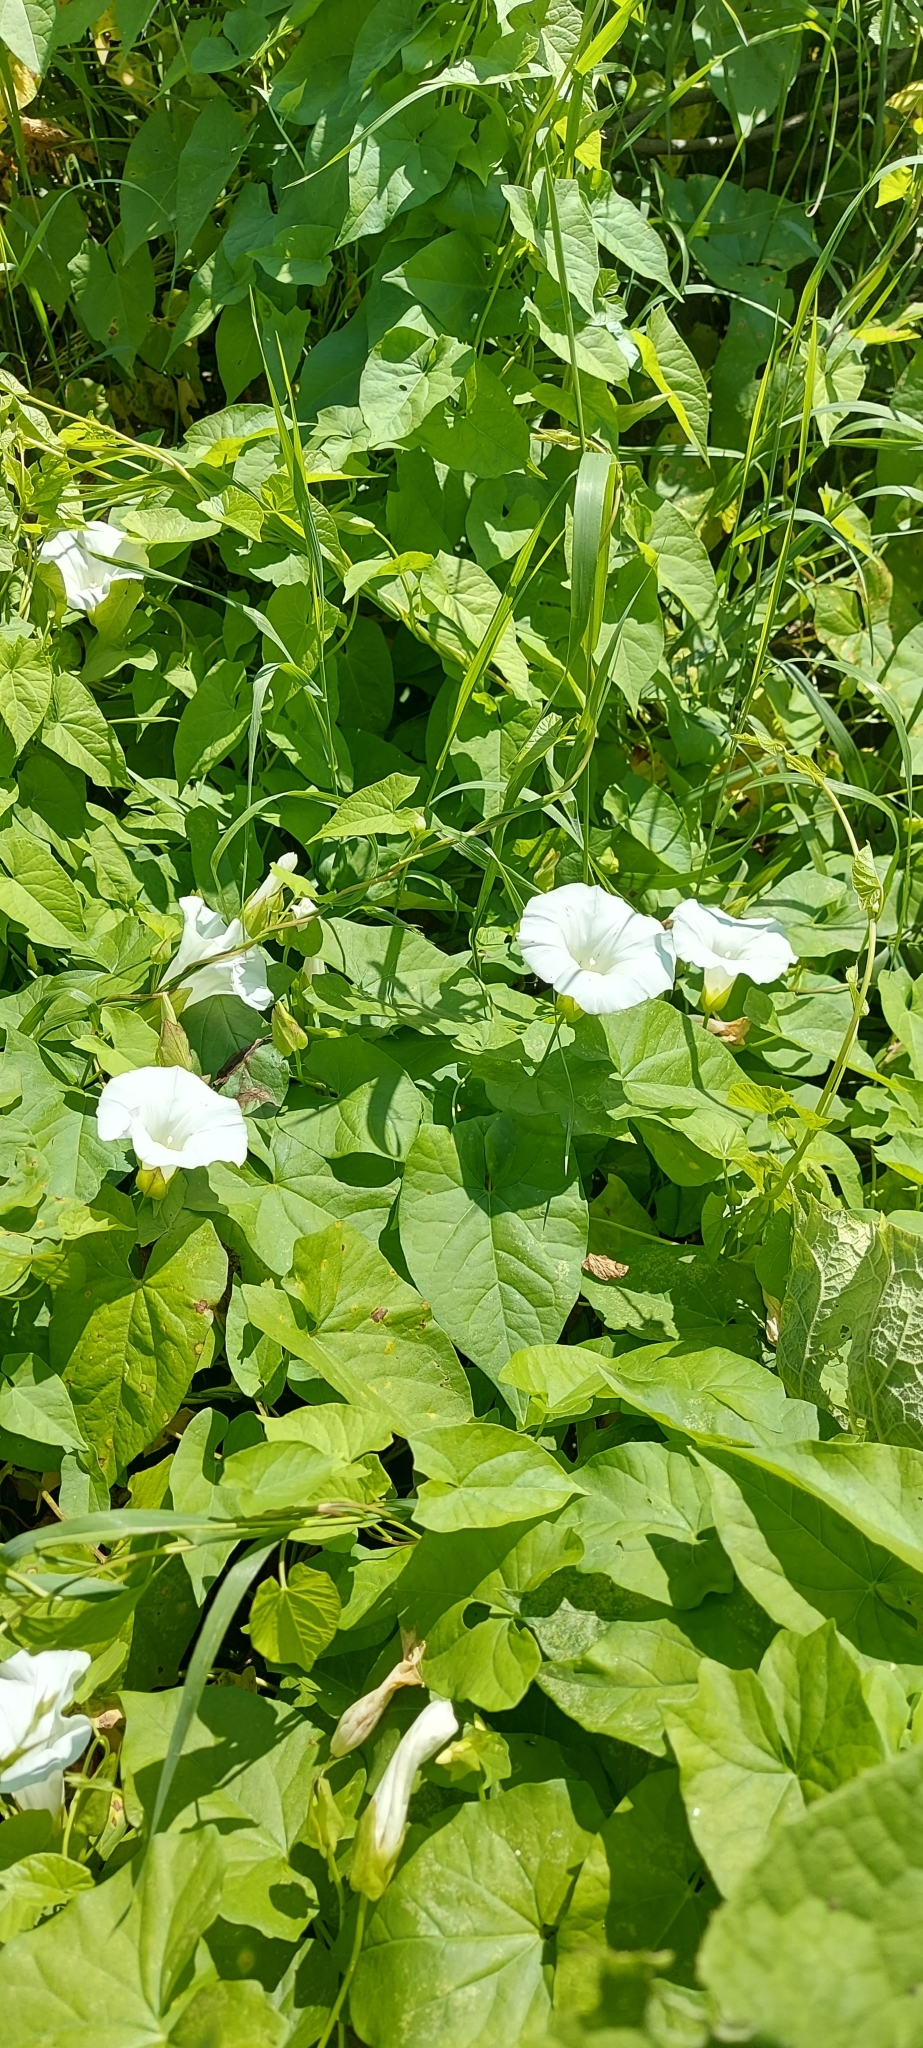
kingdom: Plantae
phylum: Tracheophyta
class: Magnoliopsida
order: Solanales
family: Convolvulaceae
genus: Calystegia
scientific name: Calystegia sepium
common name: Hedge bindweed
